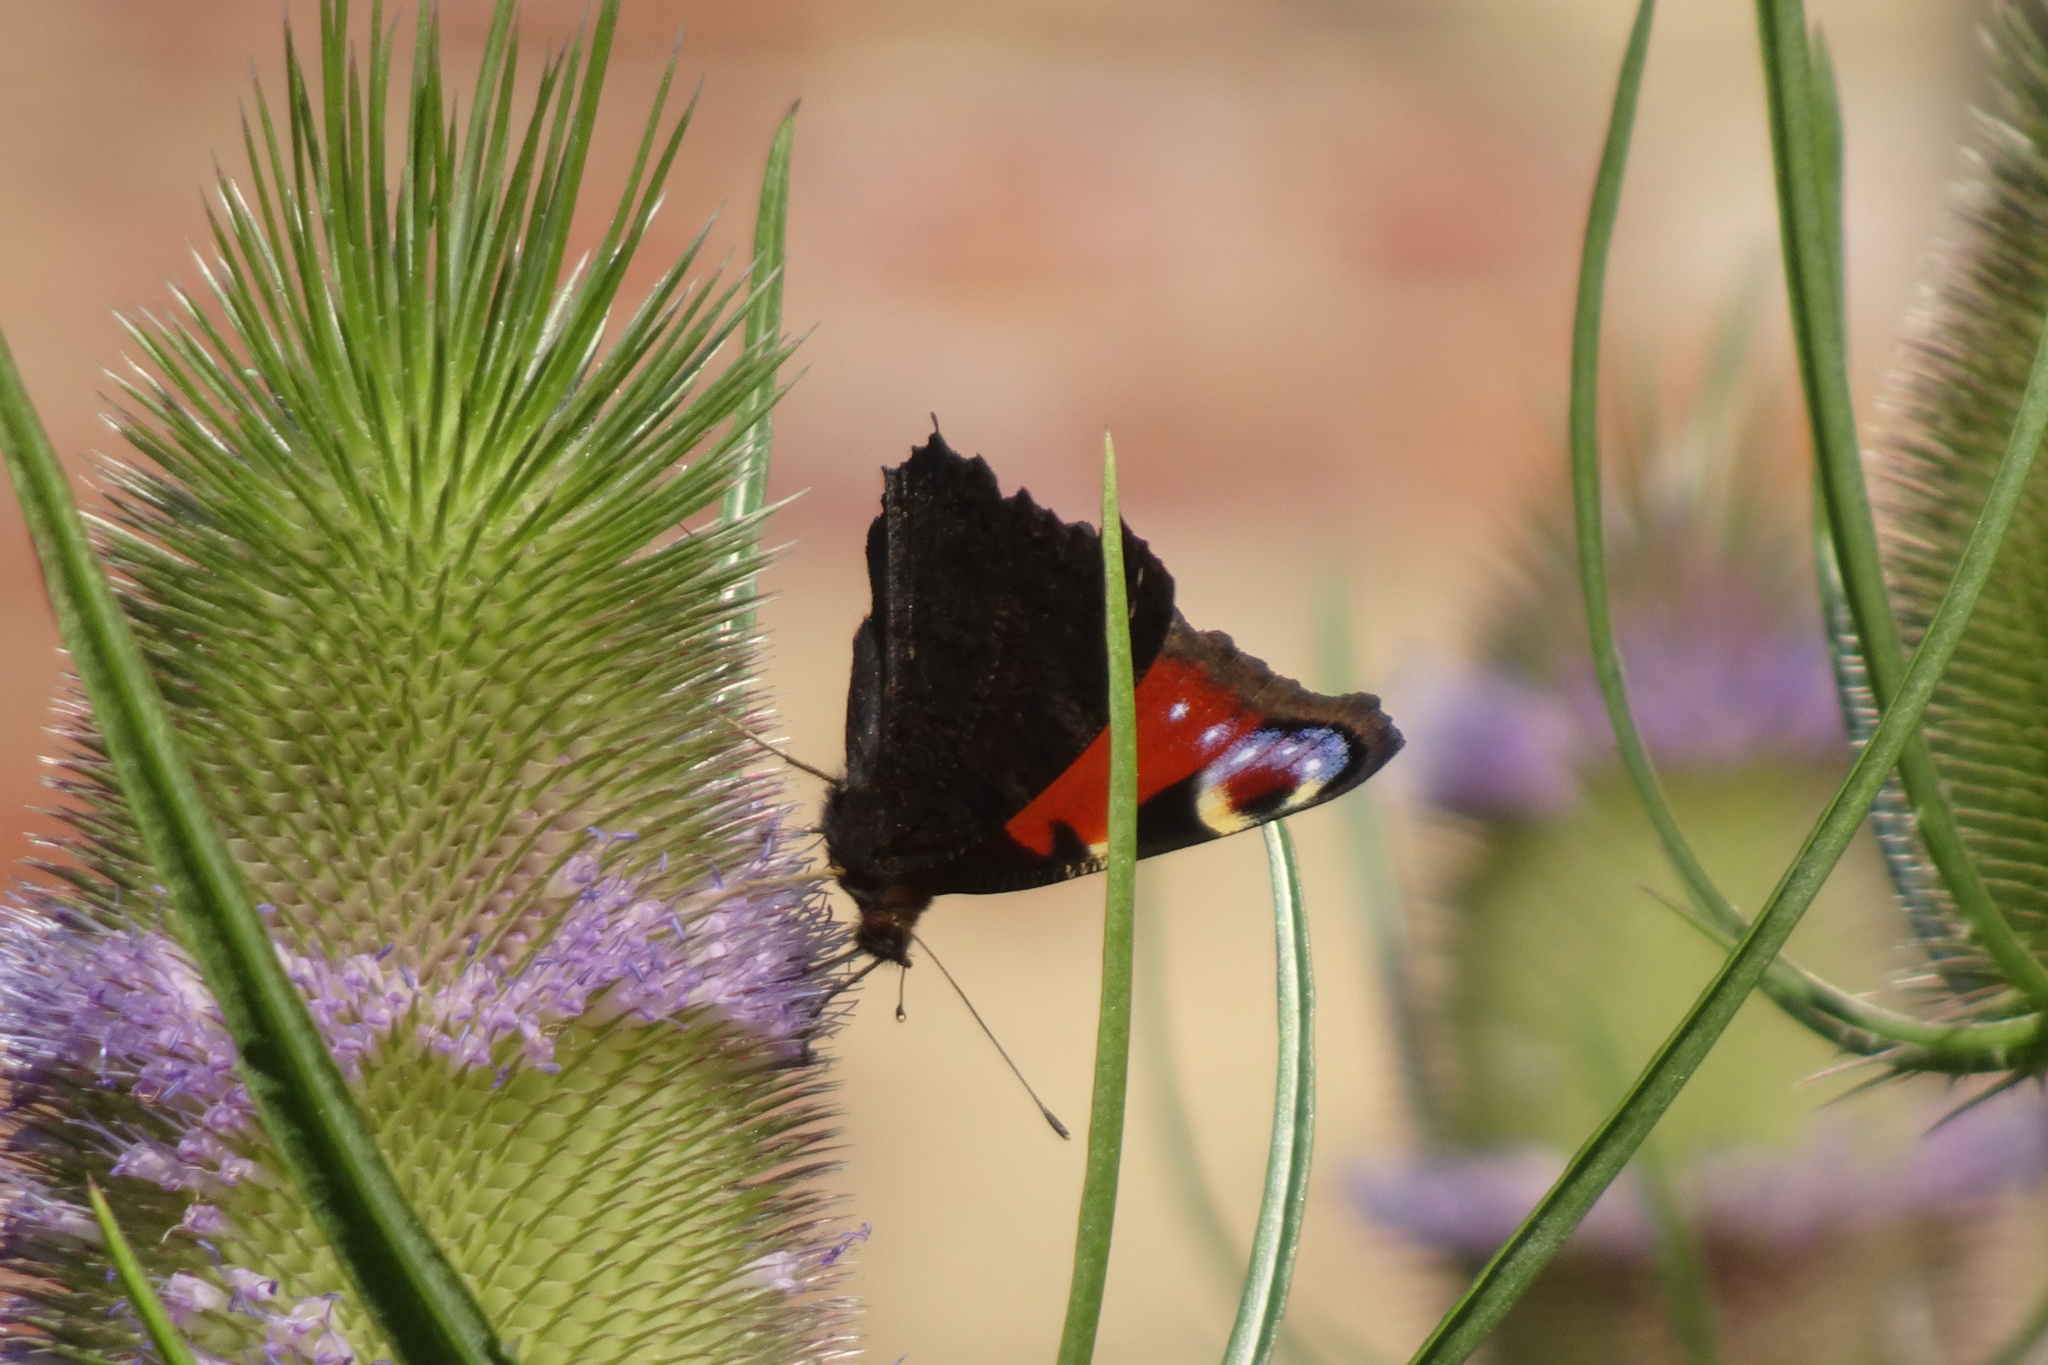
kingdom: Animalia
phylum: Arthropoda
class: Insecta
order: Lepidoptera
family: Nymphalidae
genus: Aglais
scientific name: Aglais io
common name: Peacock
